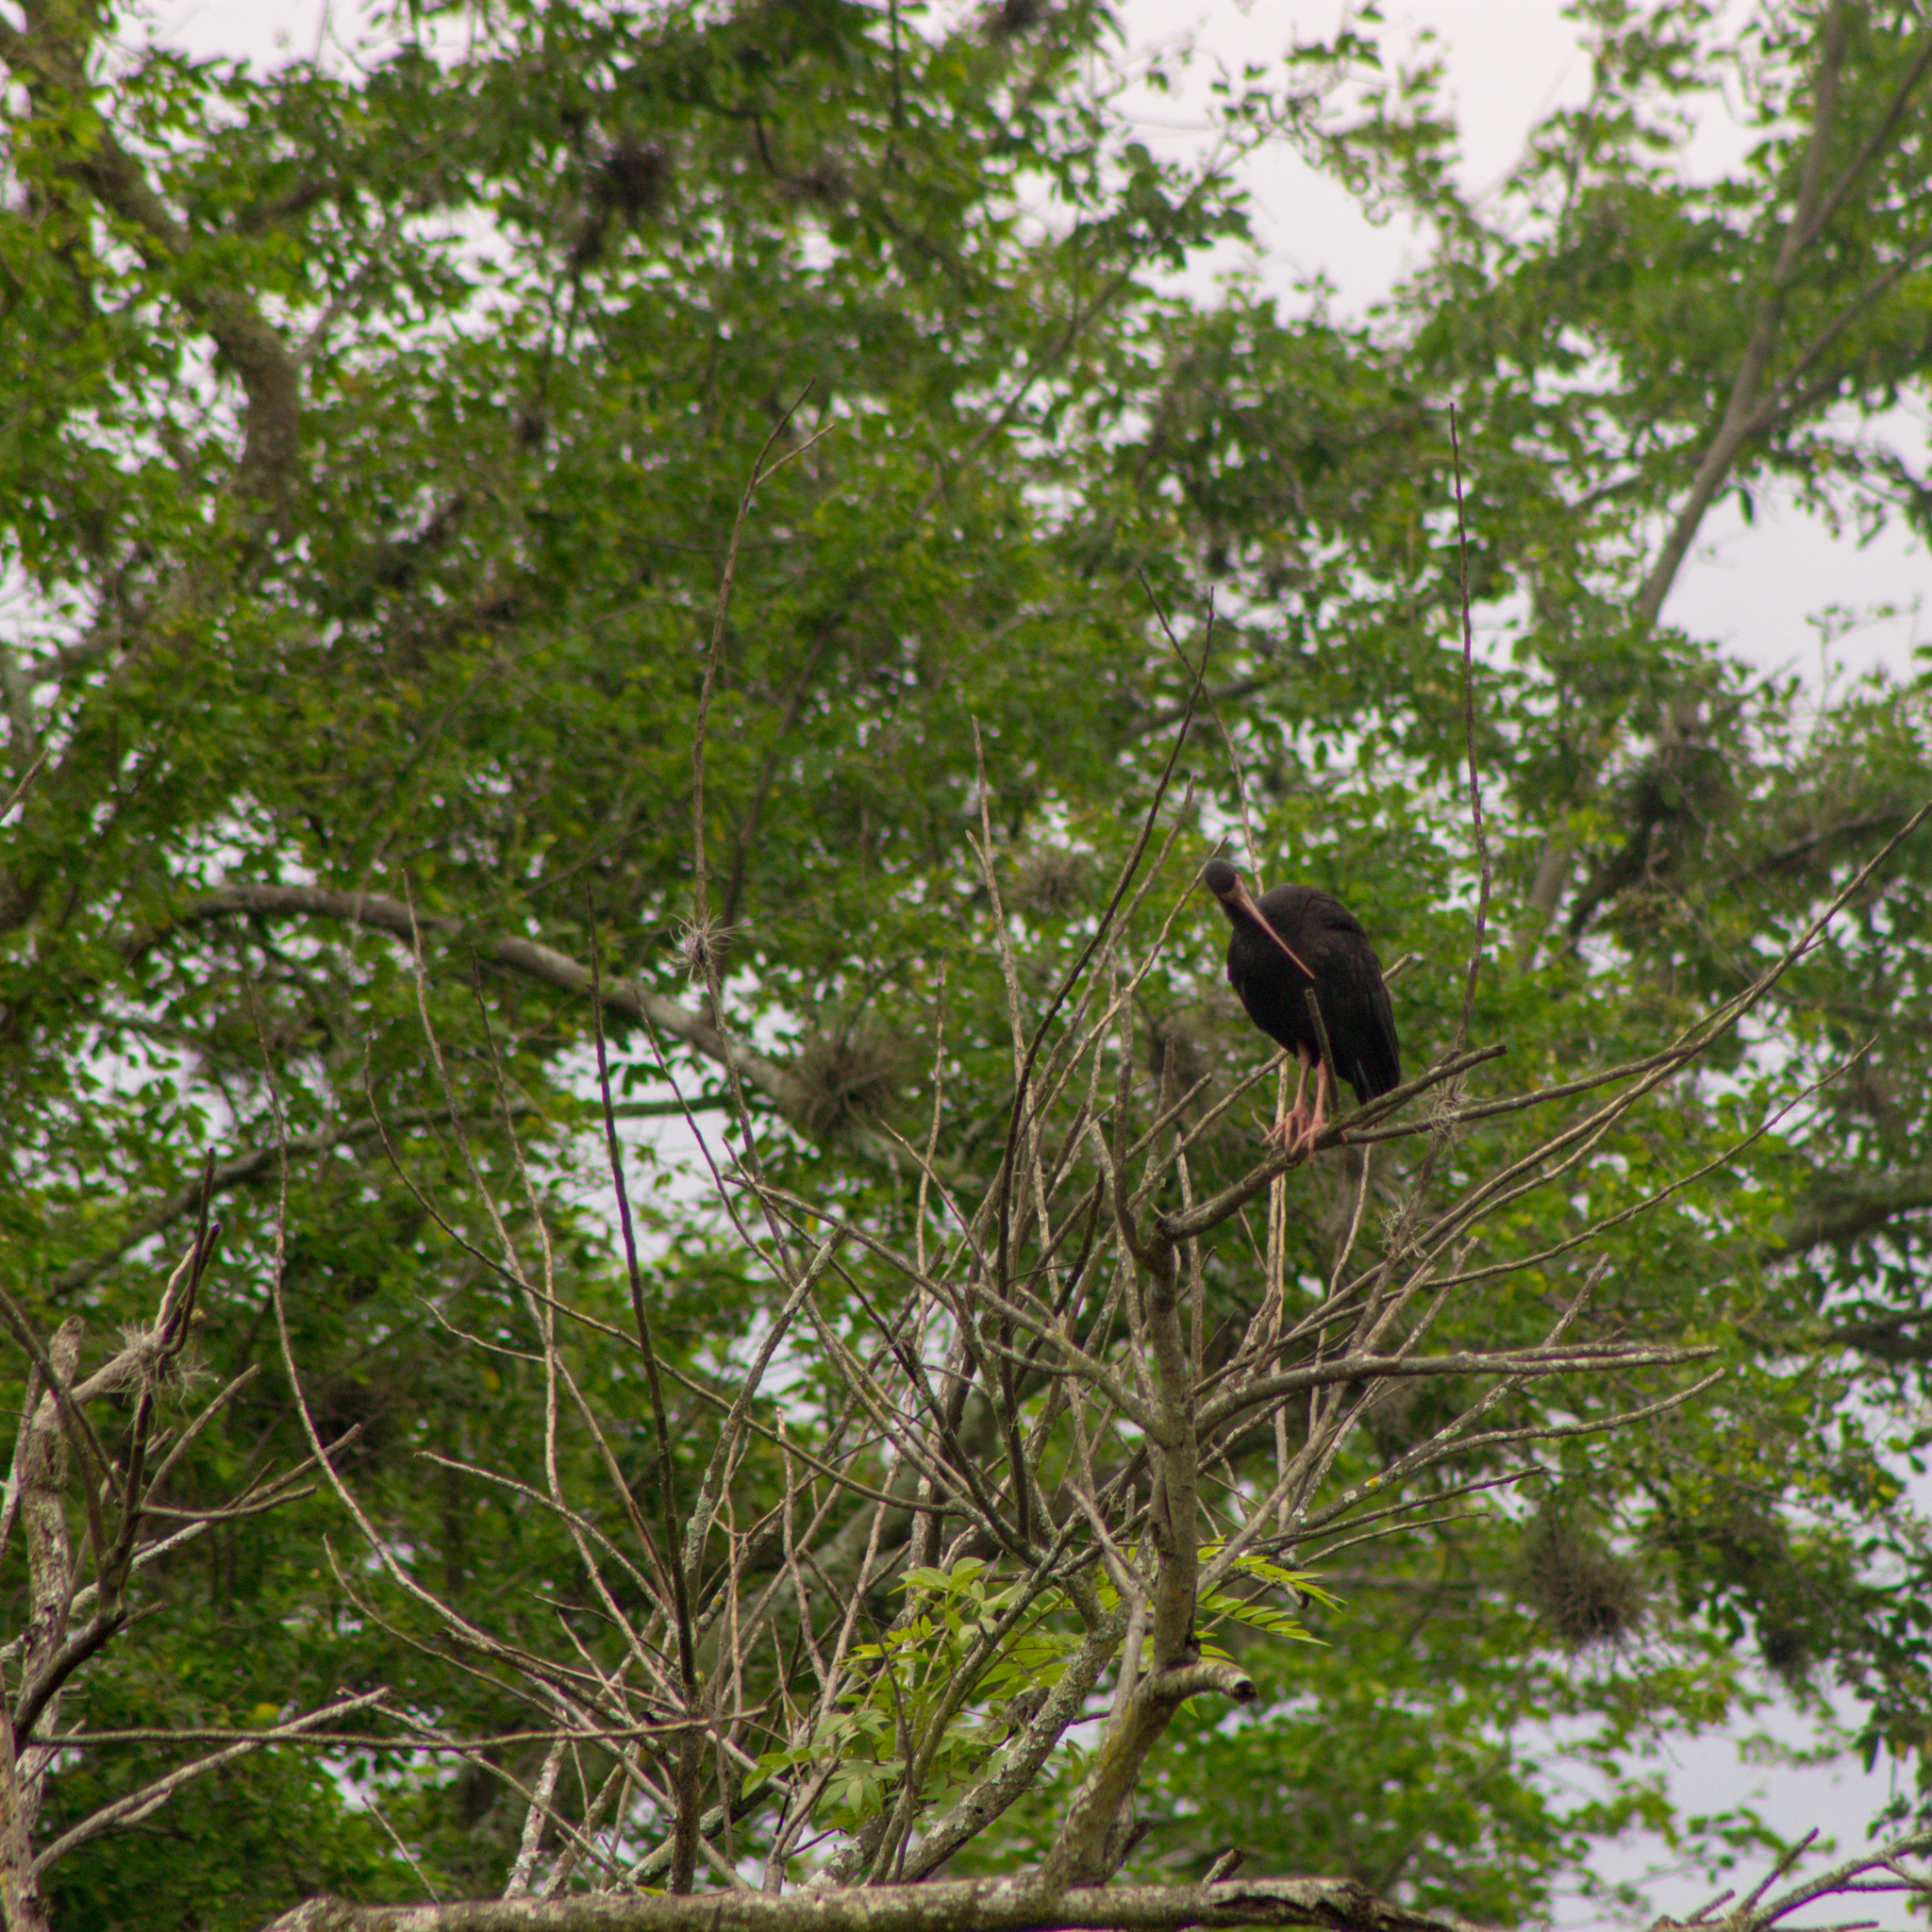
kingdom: Animalia
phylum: Chordata
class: Aves
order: Pelecaniformes
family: Threskiornithidae
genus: Phimosus
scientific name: Phimosus infuscatus
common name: Bare-faced ibis
